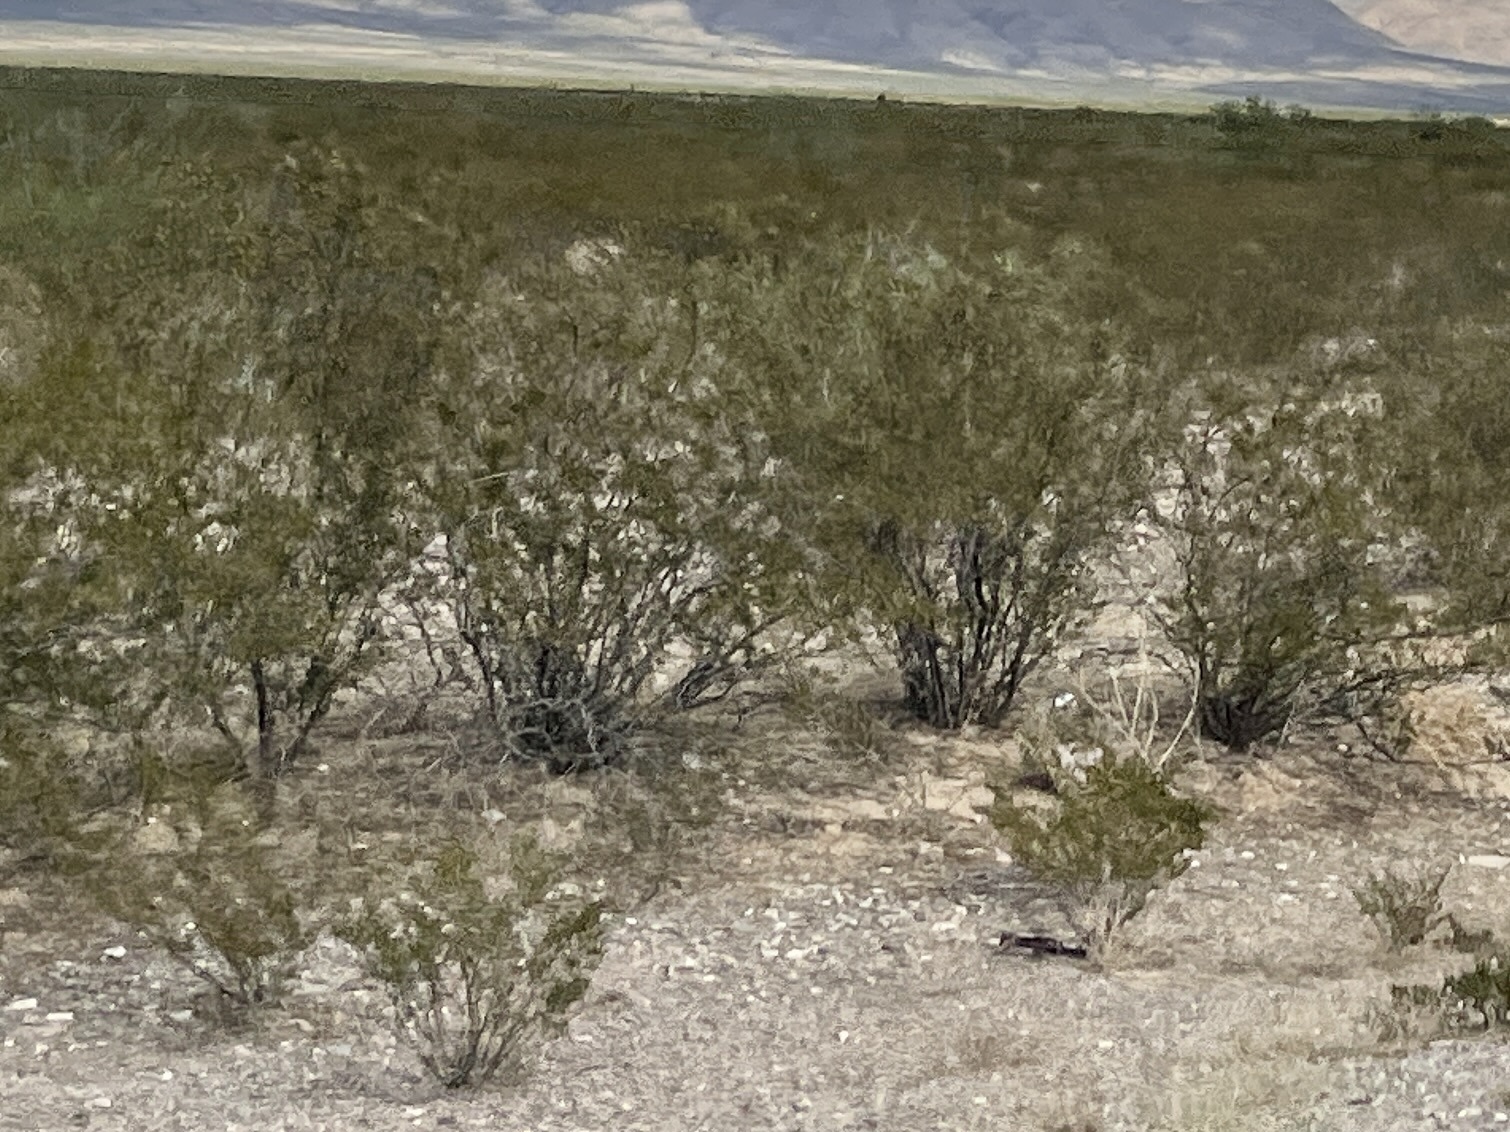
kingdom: Plantae
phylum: Tracheophyta
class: Magnoliopsida
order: Zygophyllales
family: Zygophyllaceae
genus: Larrea
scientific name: Larrea tridentata
